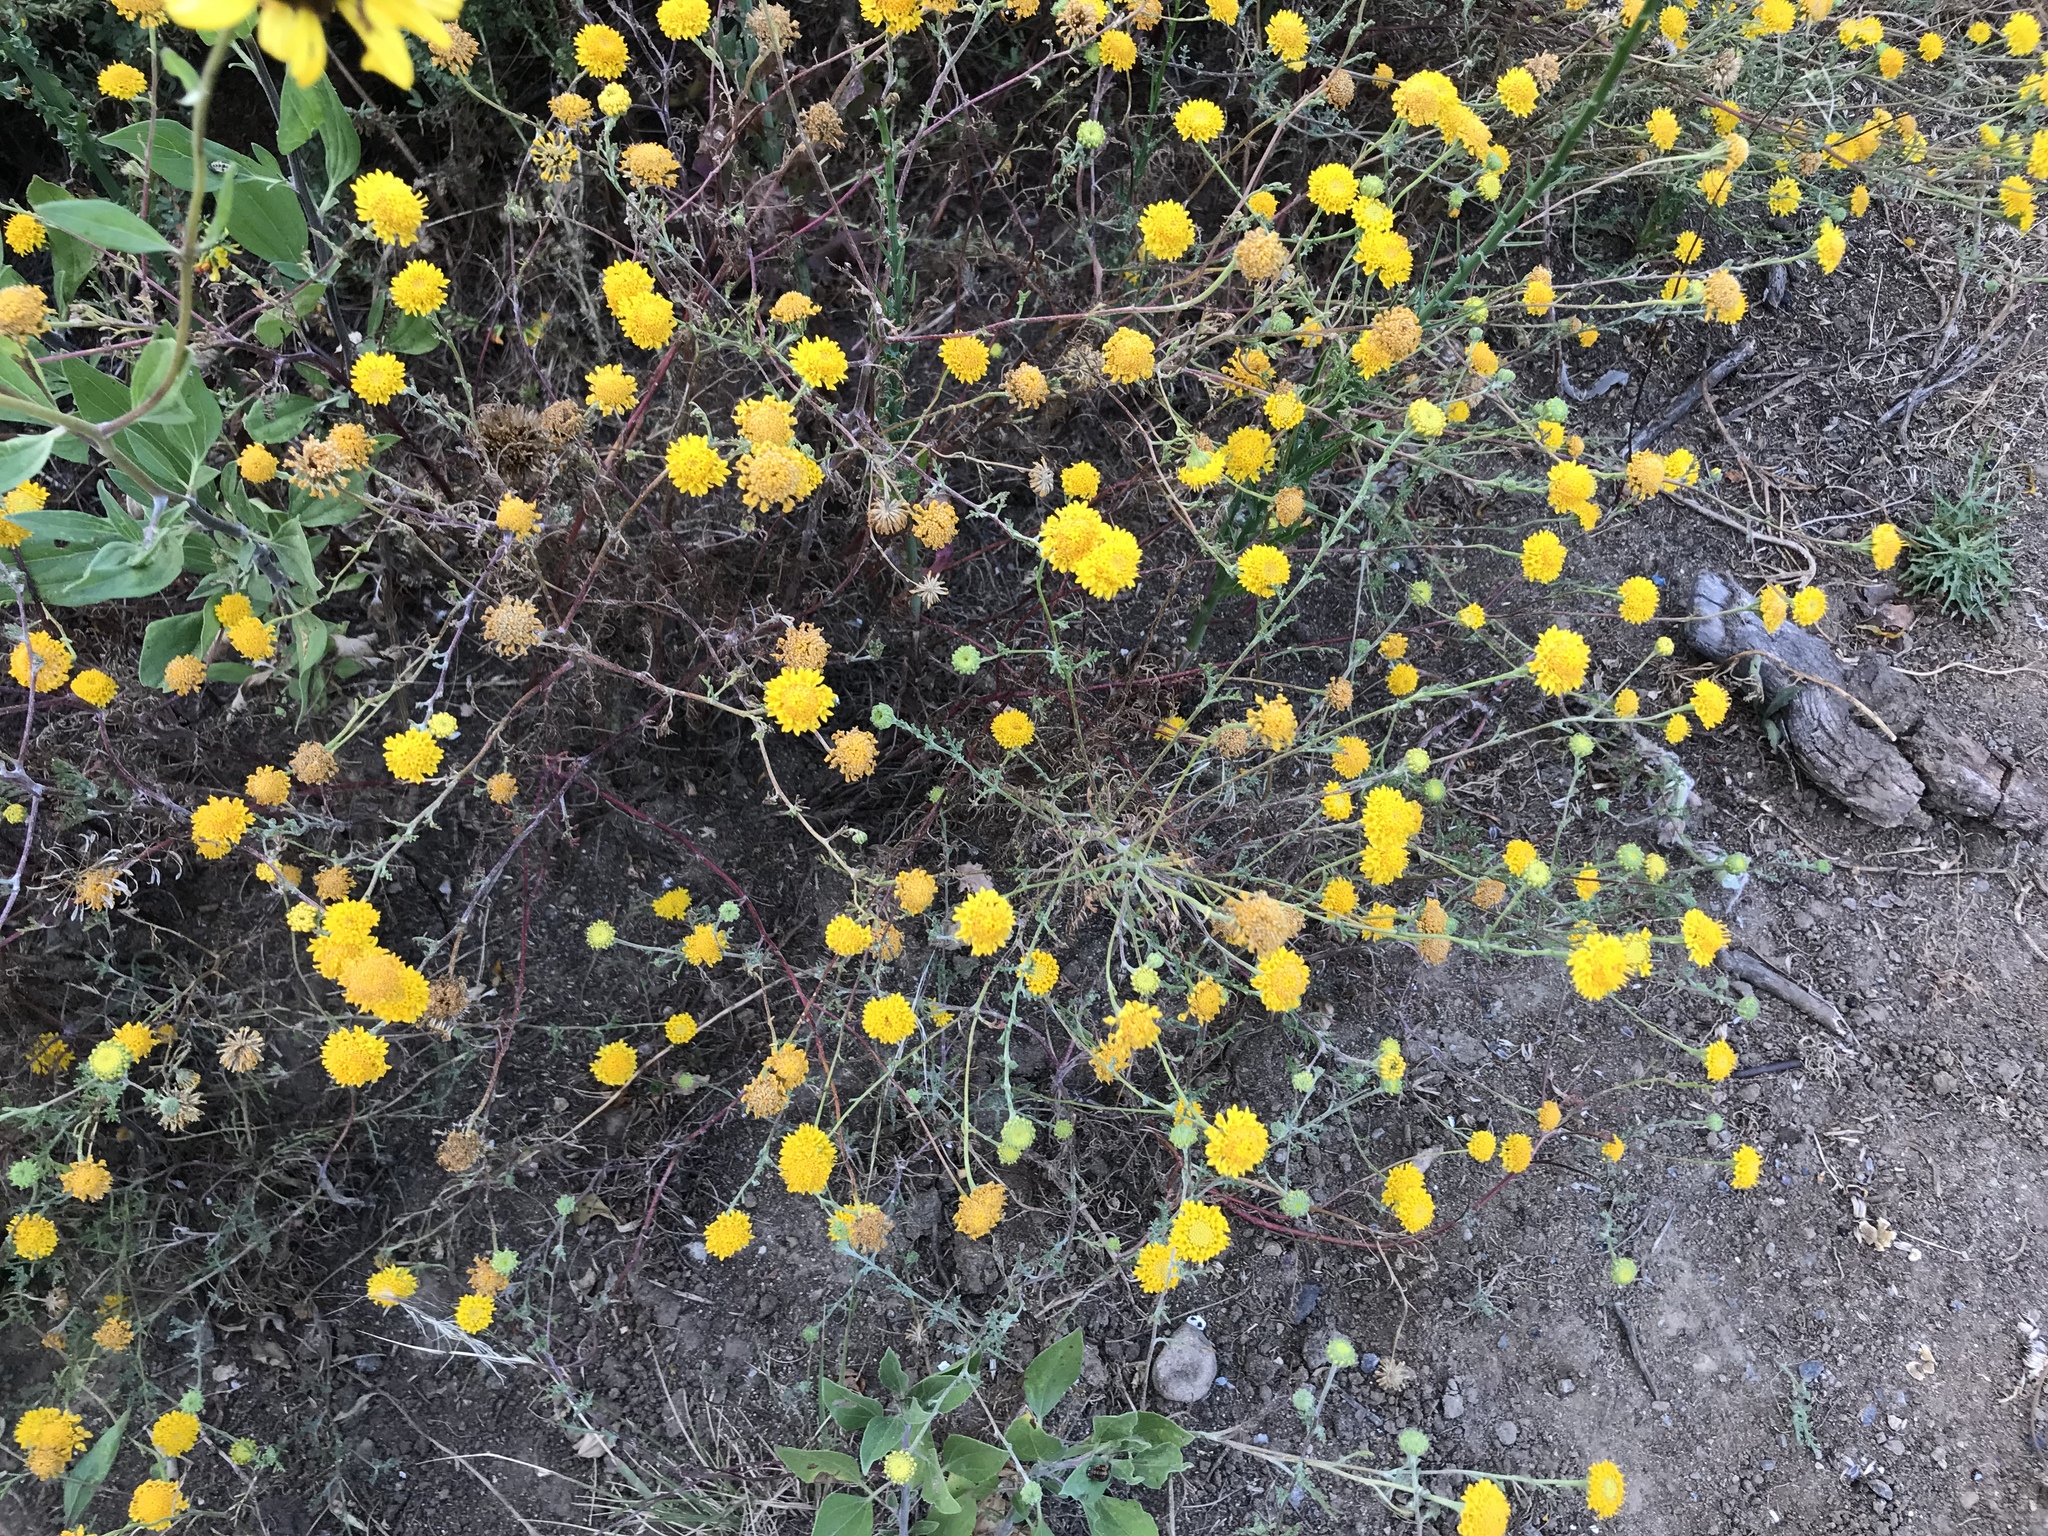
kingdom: Plantae
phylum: Tracheophyta
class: Magnoliopsida
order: Asterales
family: Asteraceae
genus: Chaenactis
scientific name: Chaenactis glabriuscula
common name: Yellow pincushion
